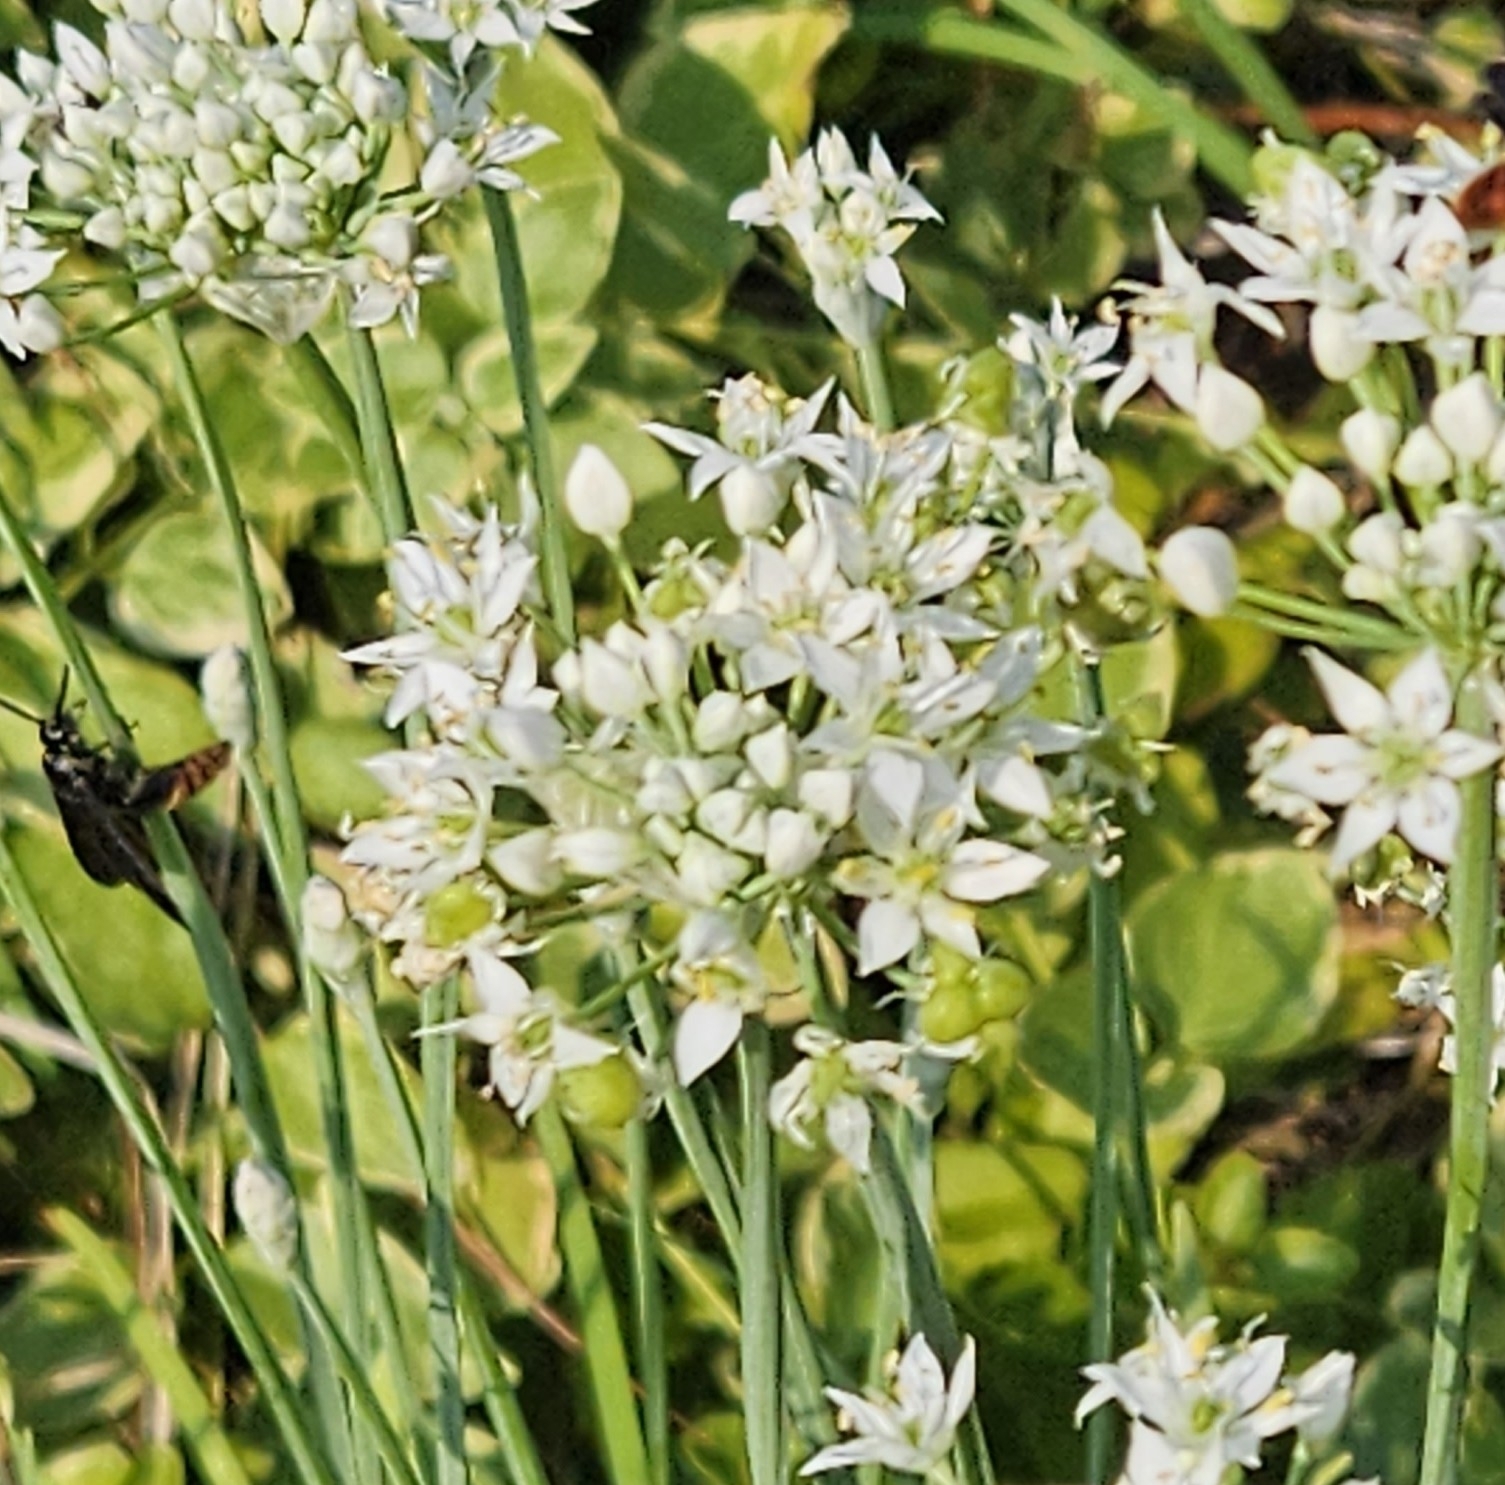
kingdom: Plantae
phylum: Tracheophyta
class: Liliopsida
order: Asparagales
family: Amaryllidaceae
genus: Allium
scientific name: Allium tuberosum
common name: Chinese chives
